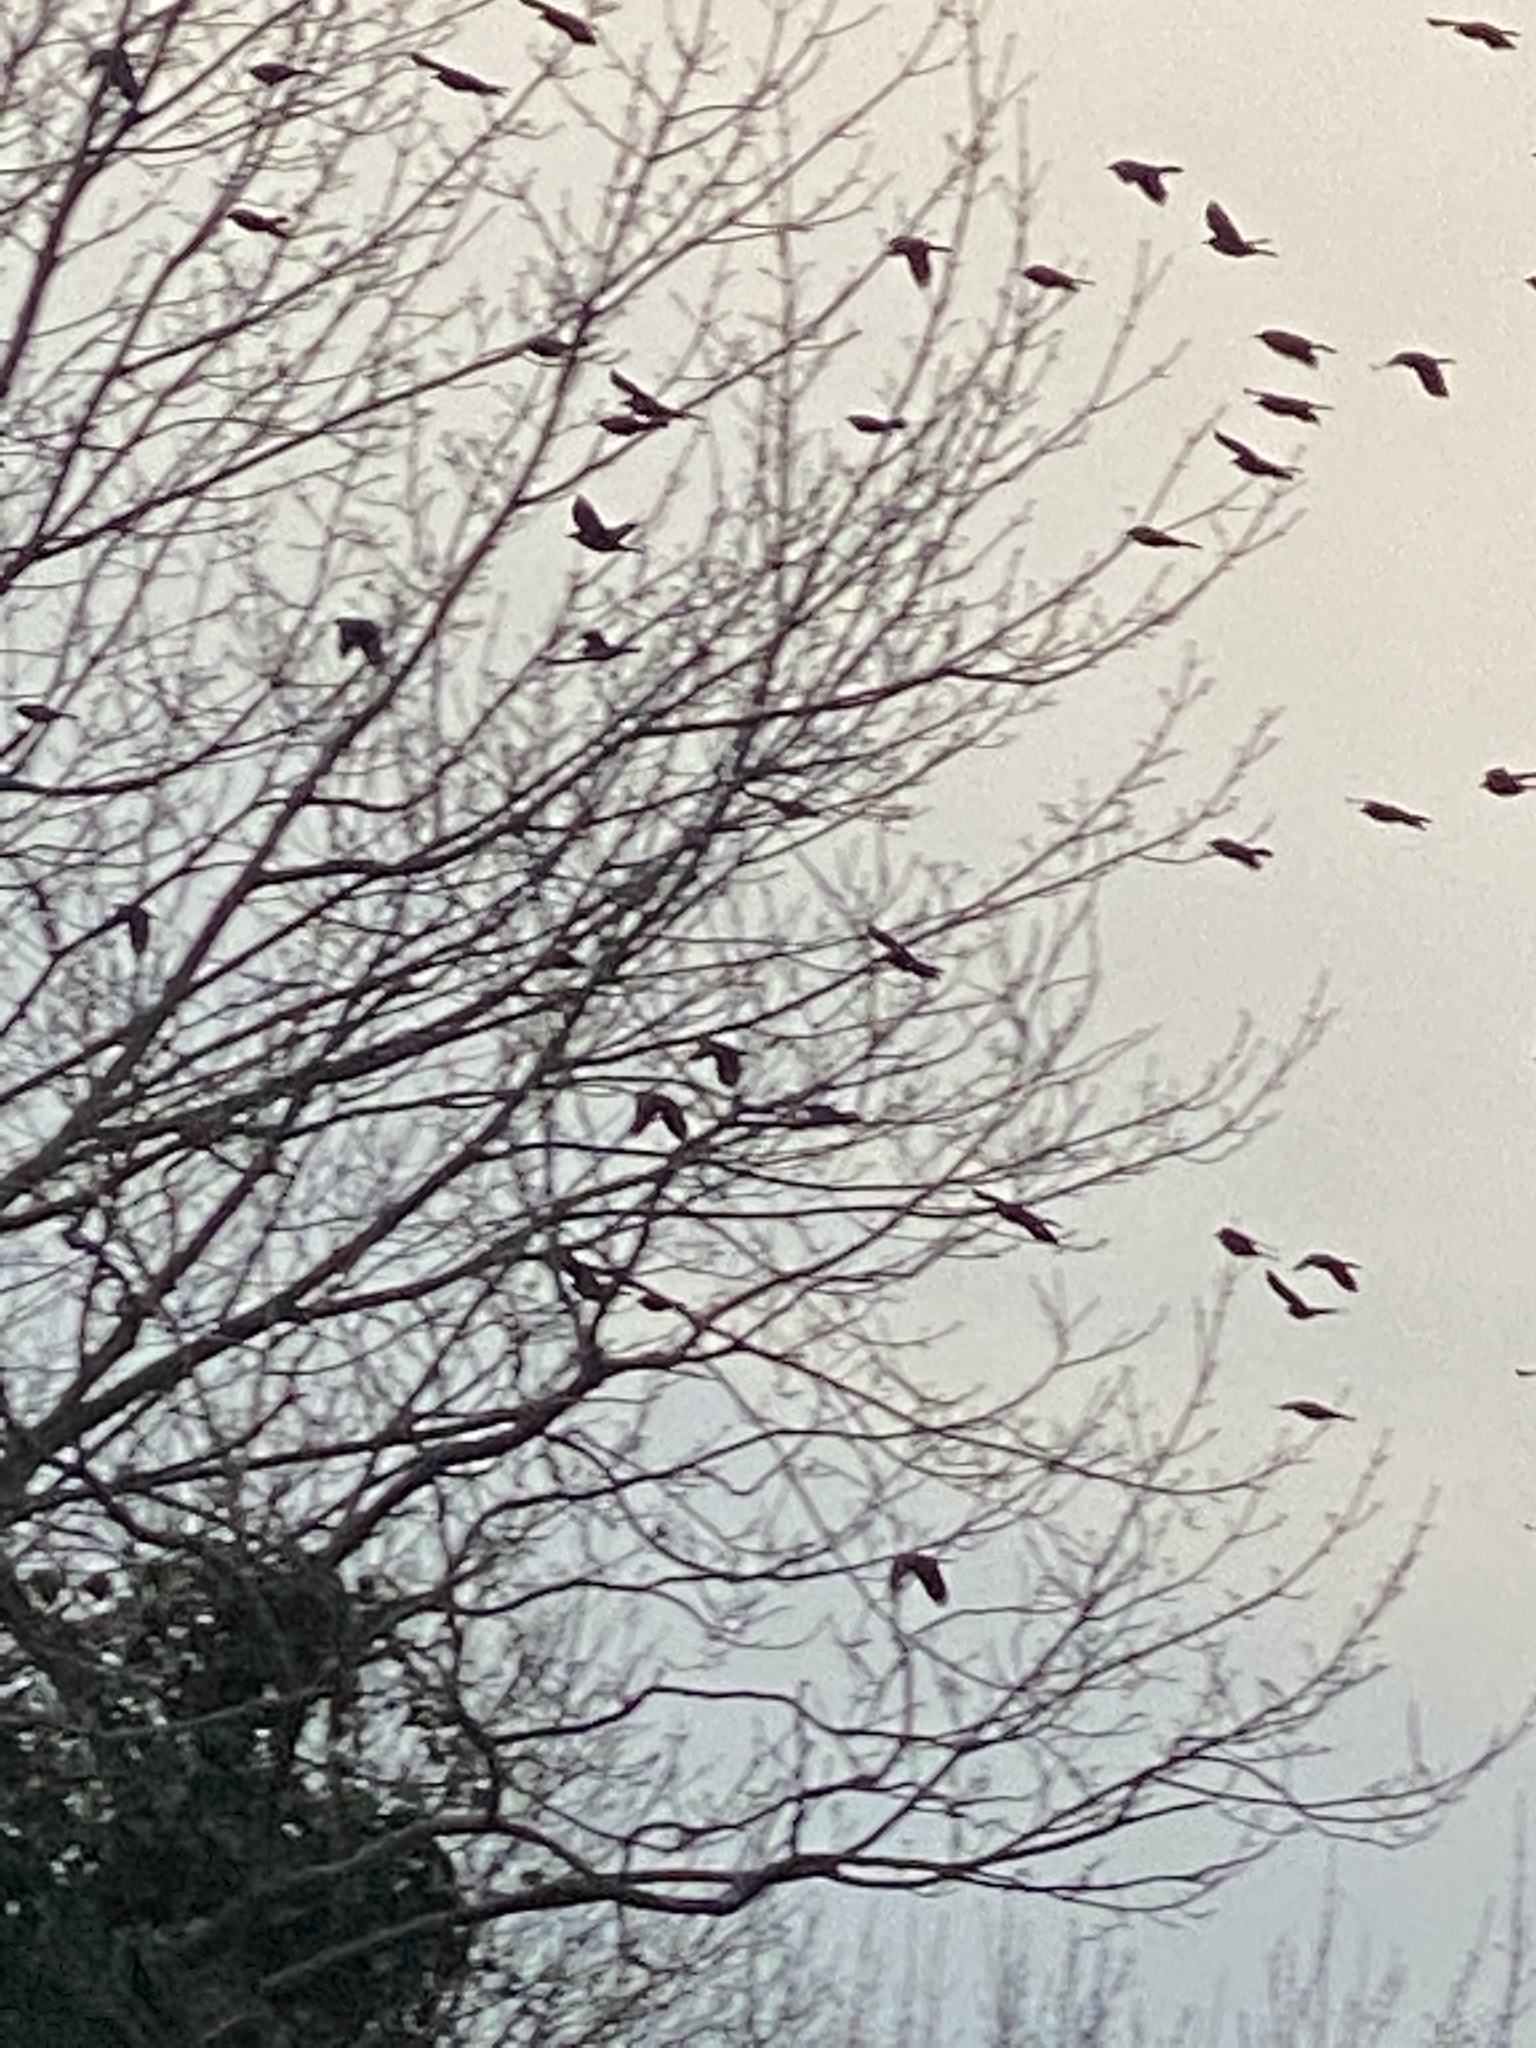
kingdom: Animalia
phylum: Chordata
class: Aves
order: Passeriformes
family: Icteridae
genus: Quiscalus
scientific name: Quiscalus quiscula
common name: Common grackle
